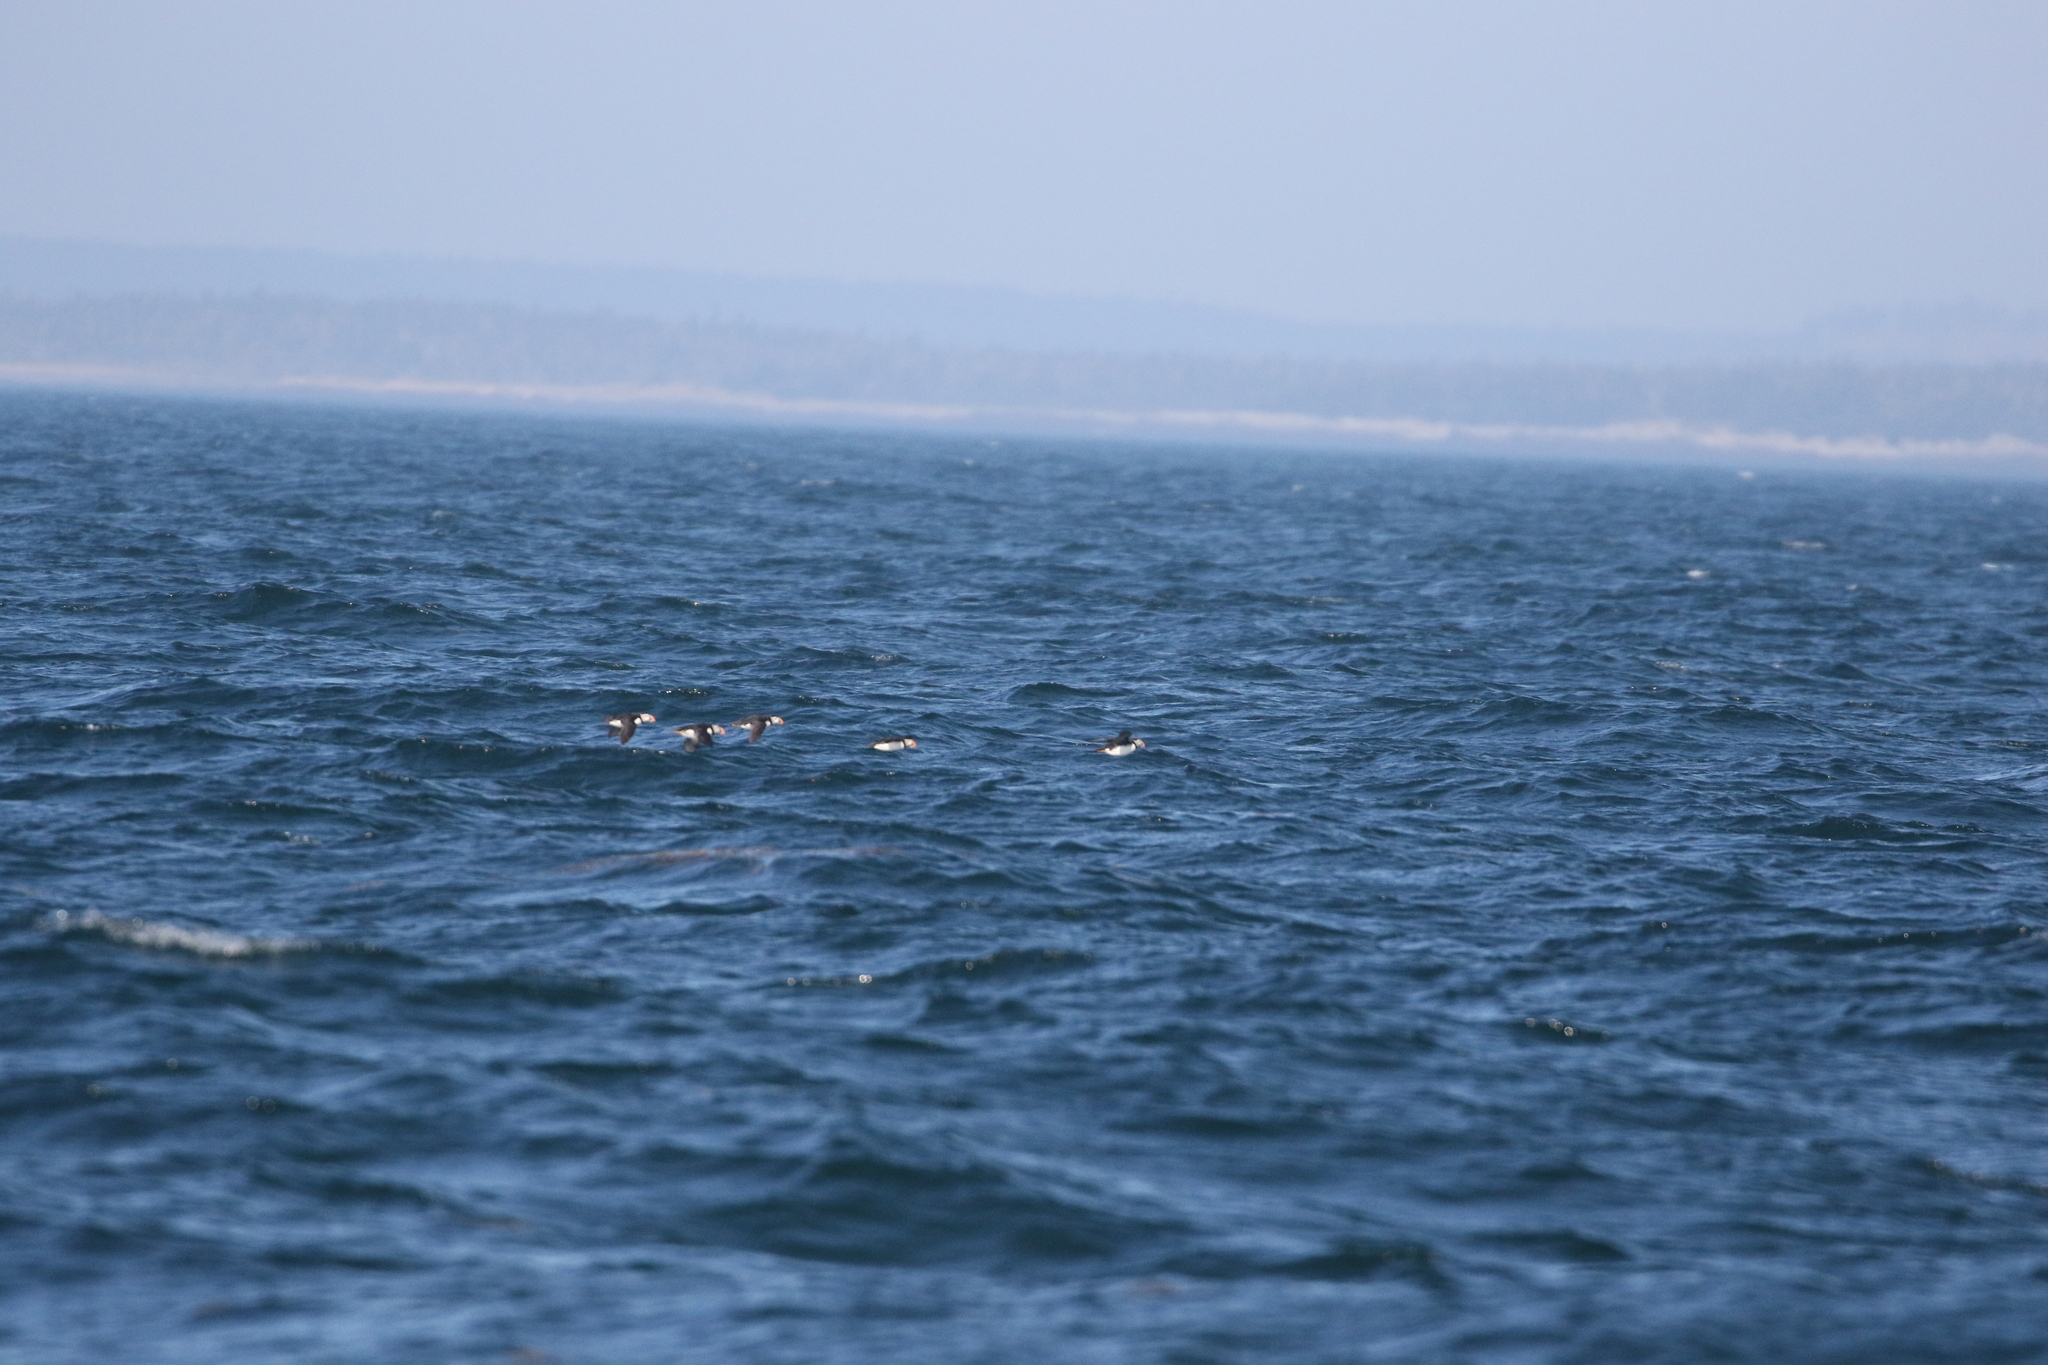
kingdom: Animalia
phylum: Chordata
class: Aves
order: Charadriiformes
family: Alcidae
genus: Fratercula
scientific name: Fratercula arctica
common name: Atlantic puffin
